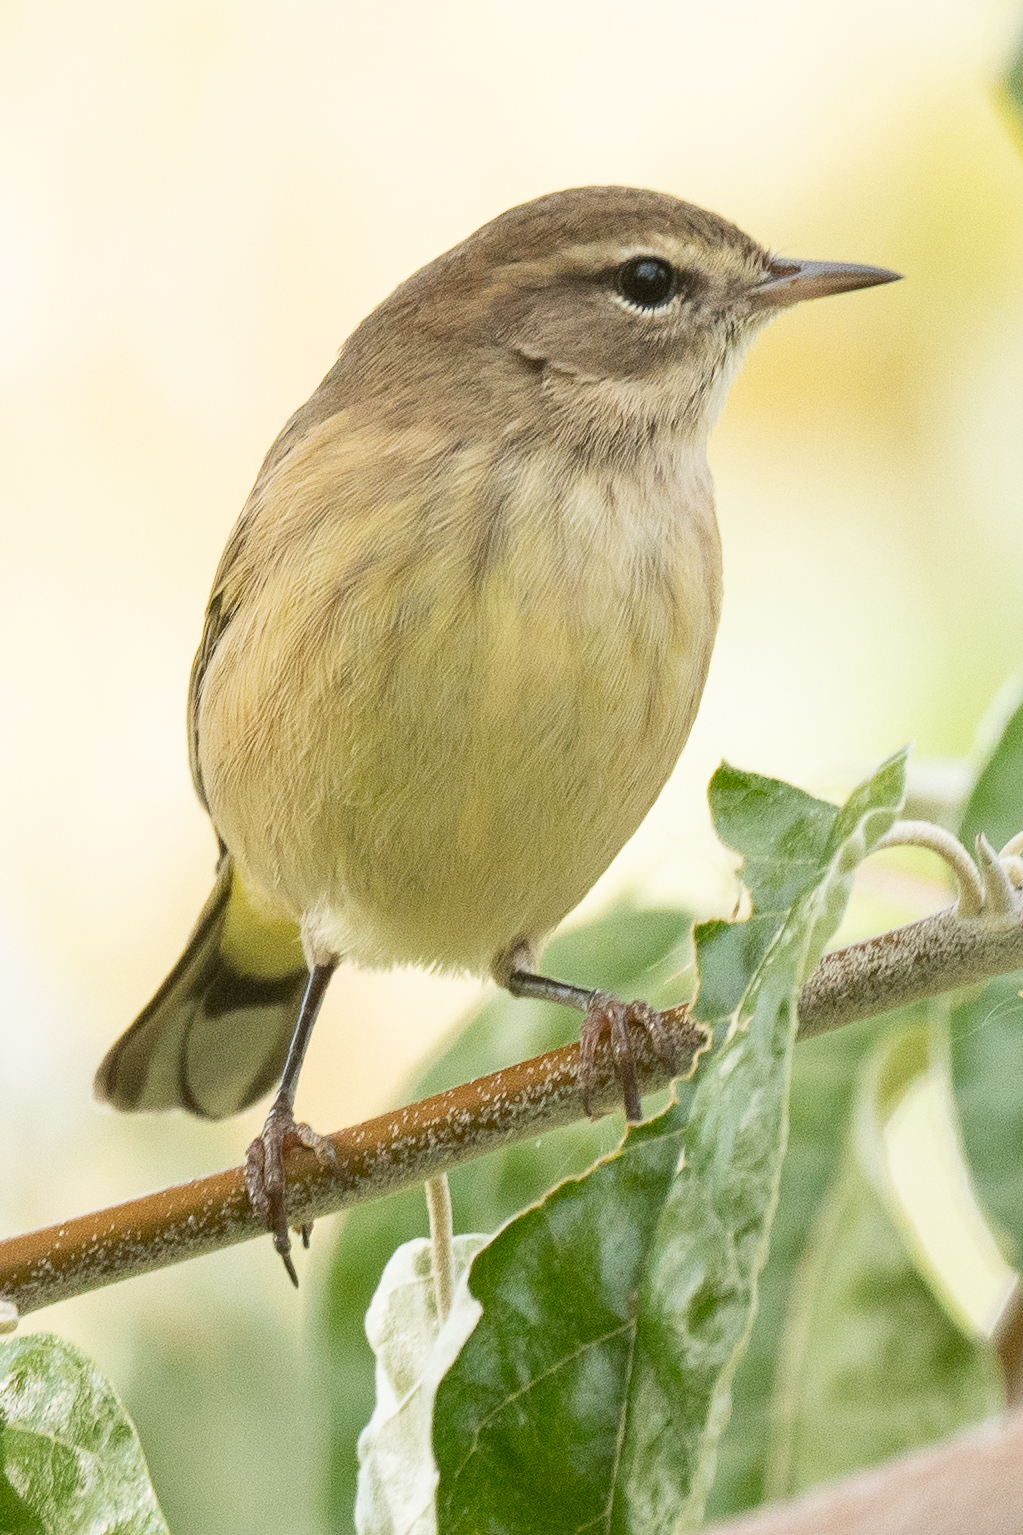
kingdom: Animalia
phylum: Chordata
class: Aves
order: Passeriformes
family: Parulidae
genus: Setophaga
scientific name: Setophaga palmarum
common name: Palm warbler
